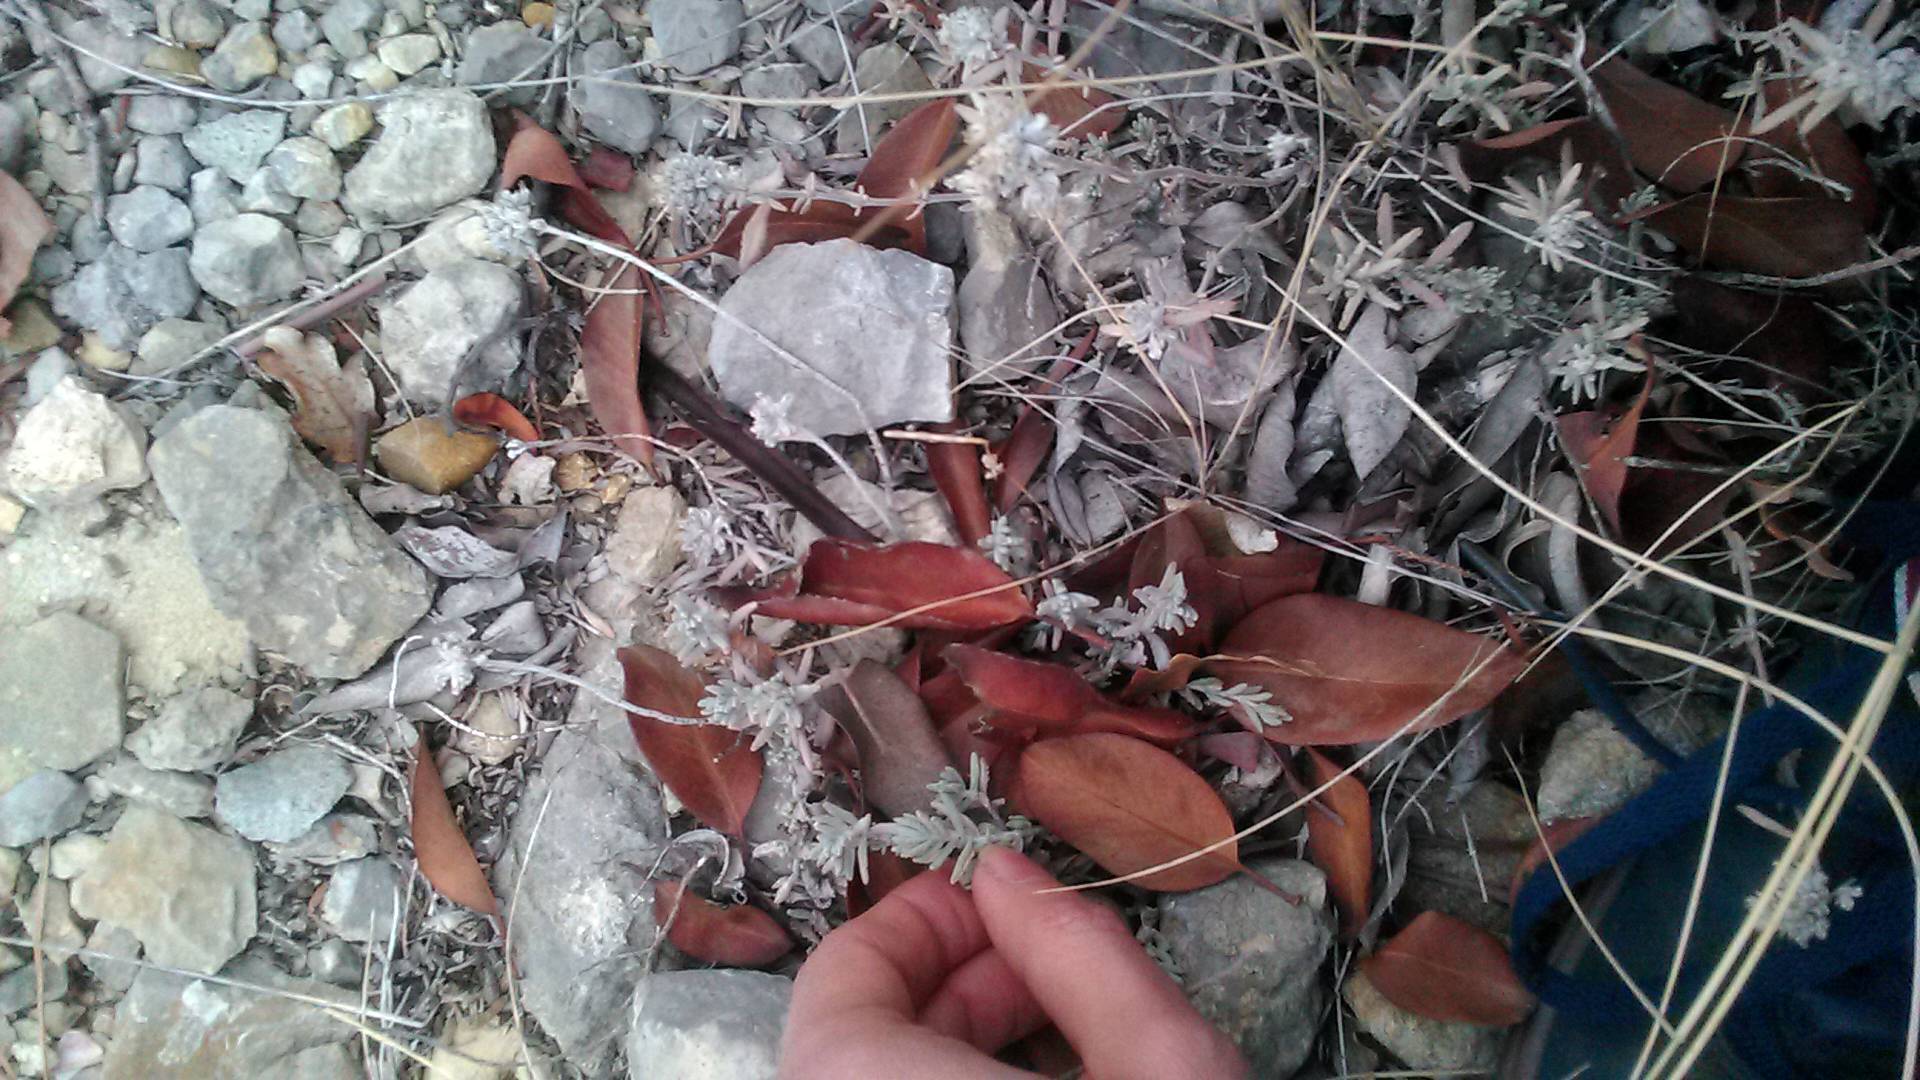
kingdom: Plantae
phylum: Tracheophyta
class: Magnoliopsida
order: Lamiales
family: Lamiaceae
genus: Teucrium
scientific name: Teucrium polium
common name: Poley
